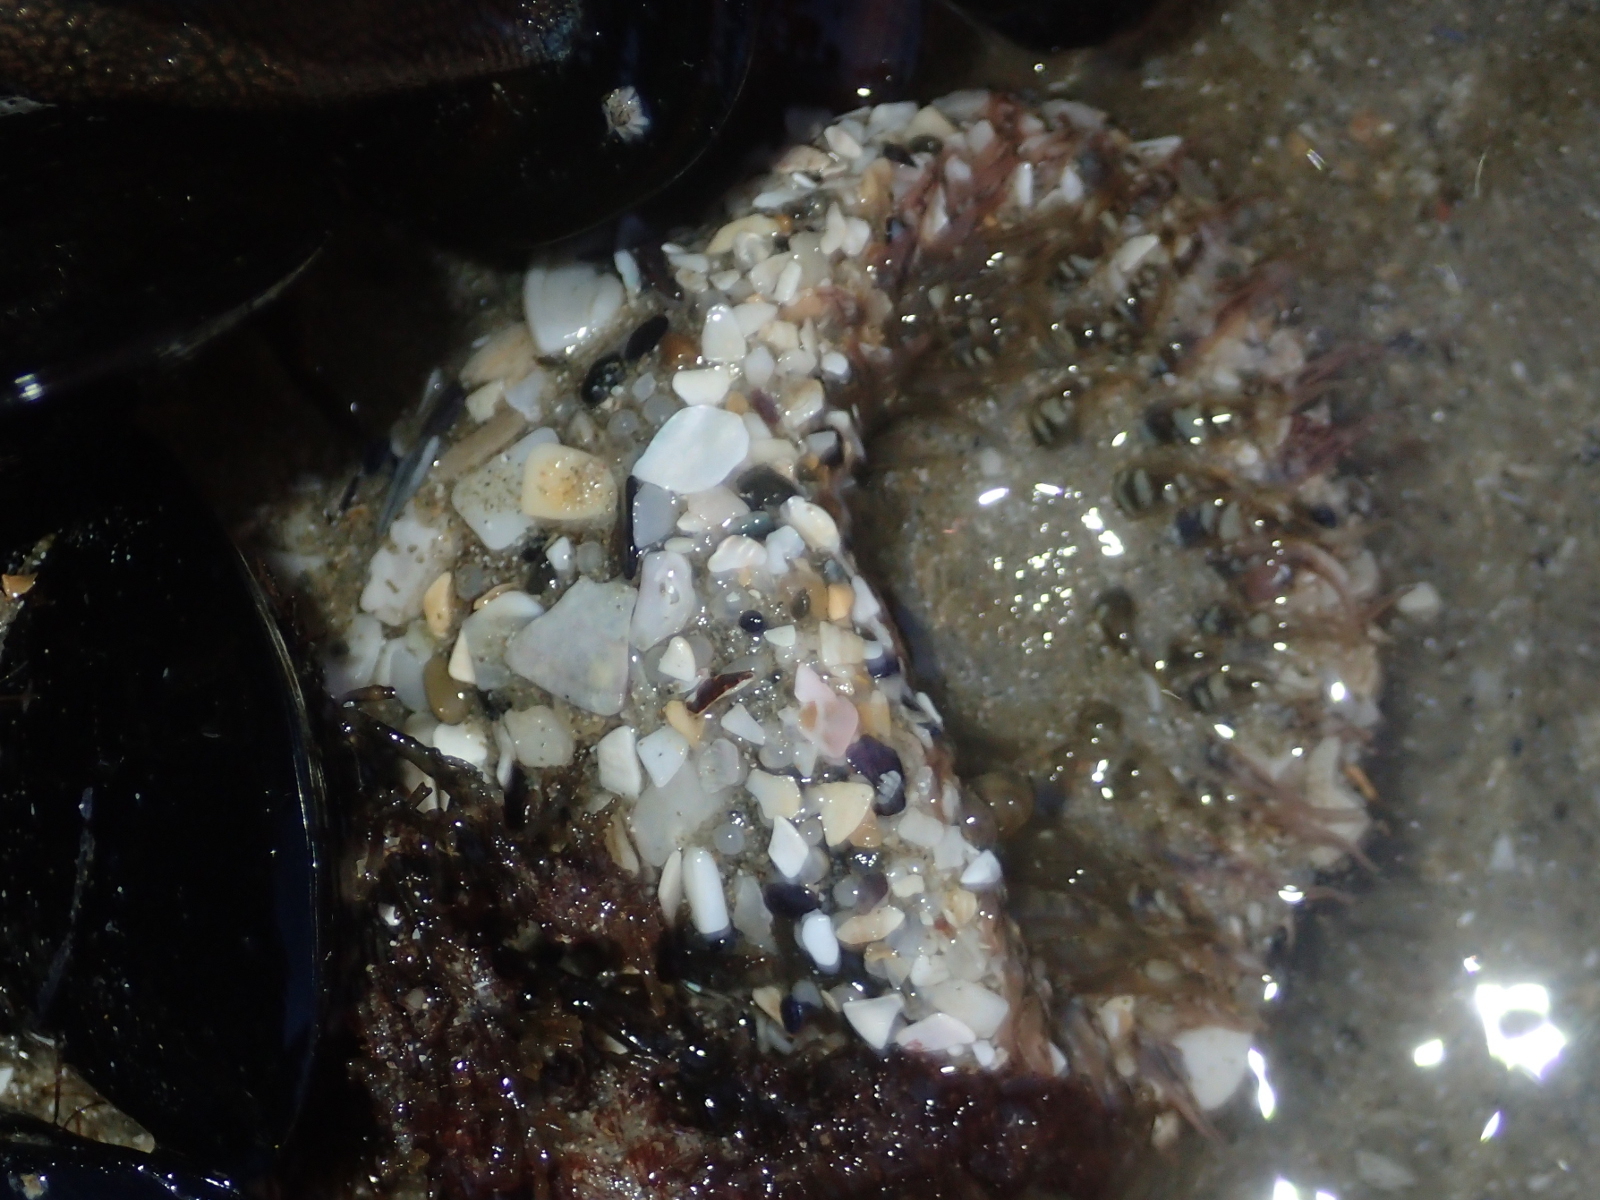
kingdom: Animalia
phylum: Cnidaria
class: Anthozoa
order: Actiniaria
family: Actiniidae
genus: Oulactis
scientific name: Oulactis muscosa
